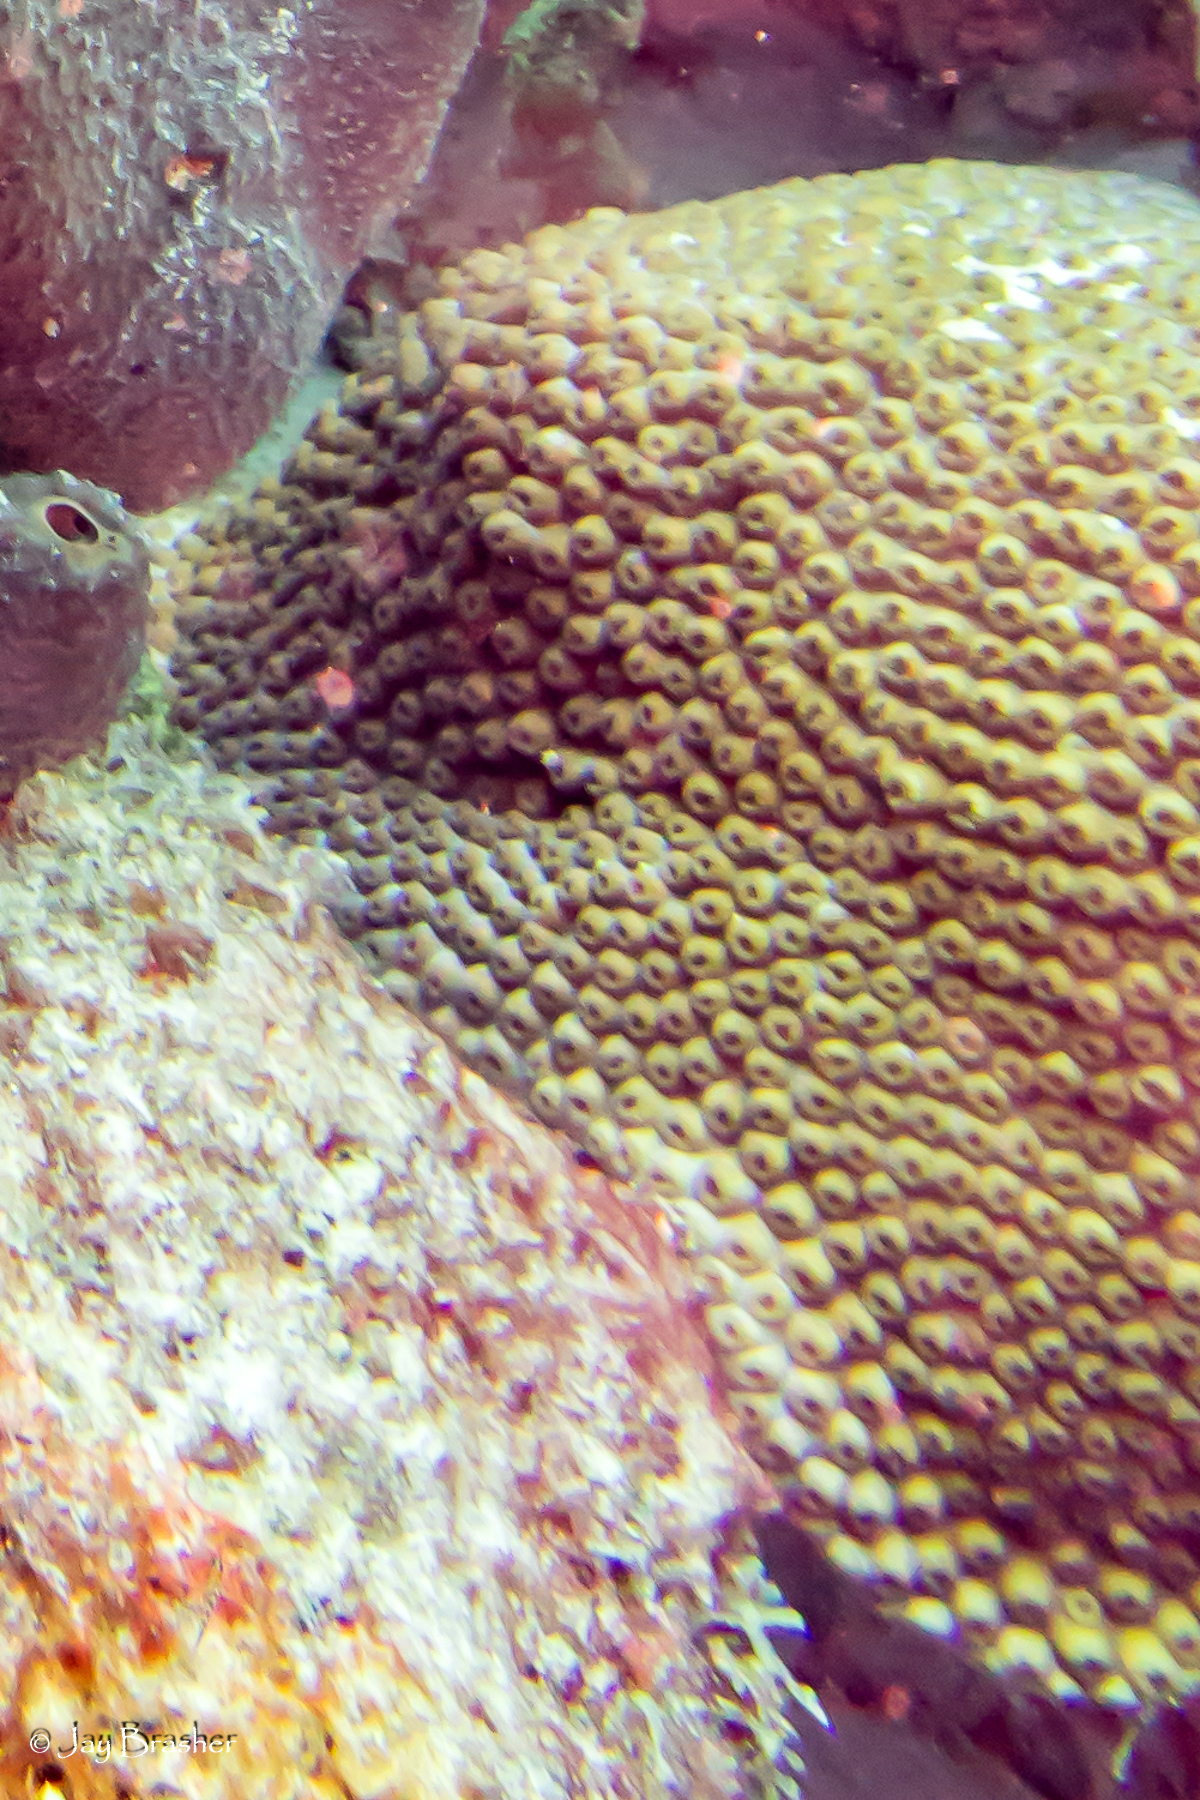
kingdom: Animalia
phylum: Cnidaria
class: Anthozoa
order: Scleractinia
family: Montastraeidae
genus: Montastraea
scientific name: Montastraea cavernosa
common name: Great star coral
